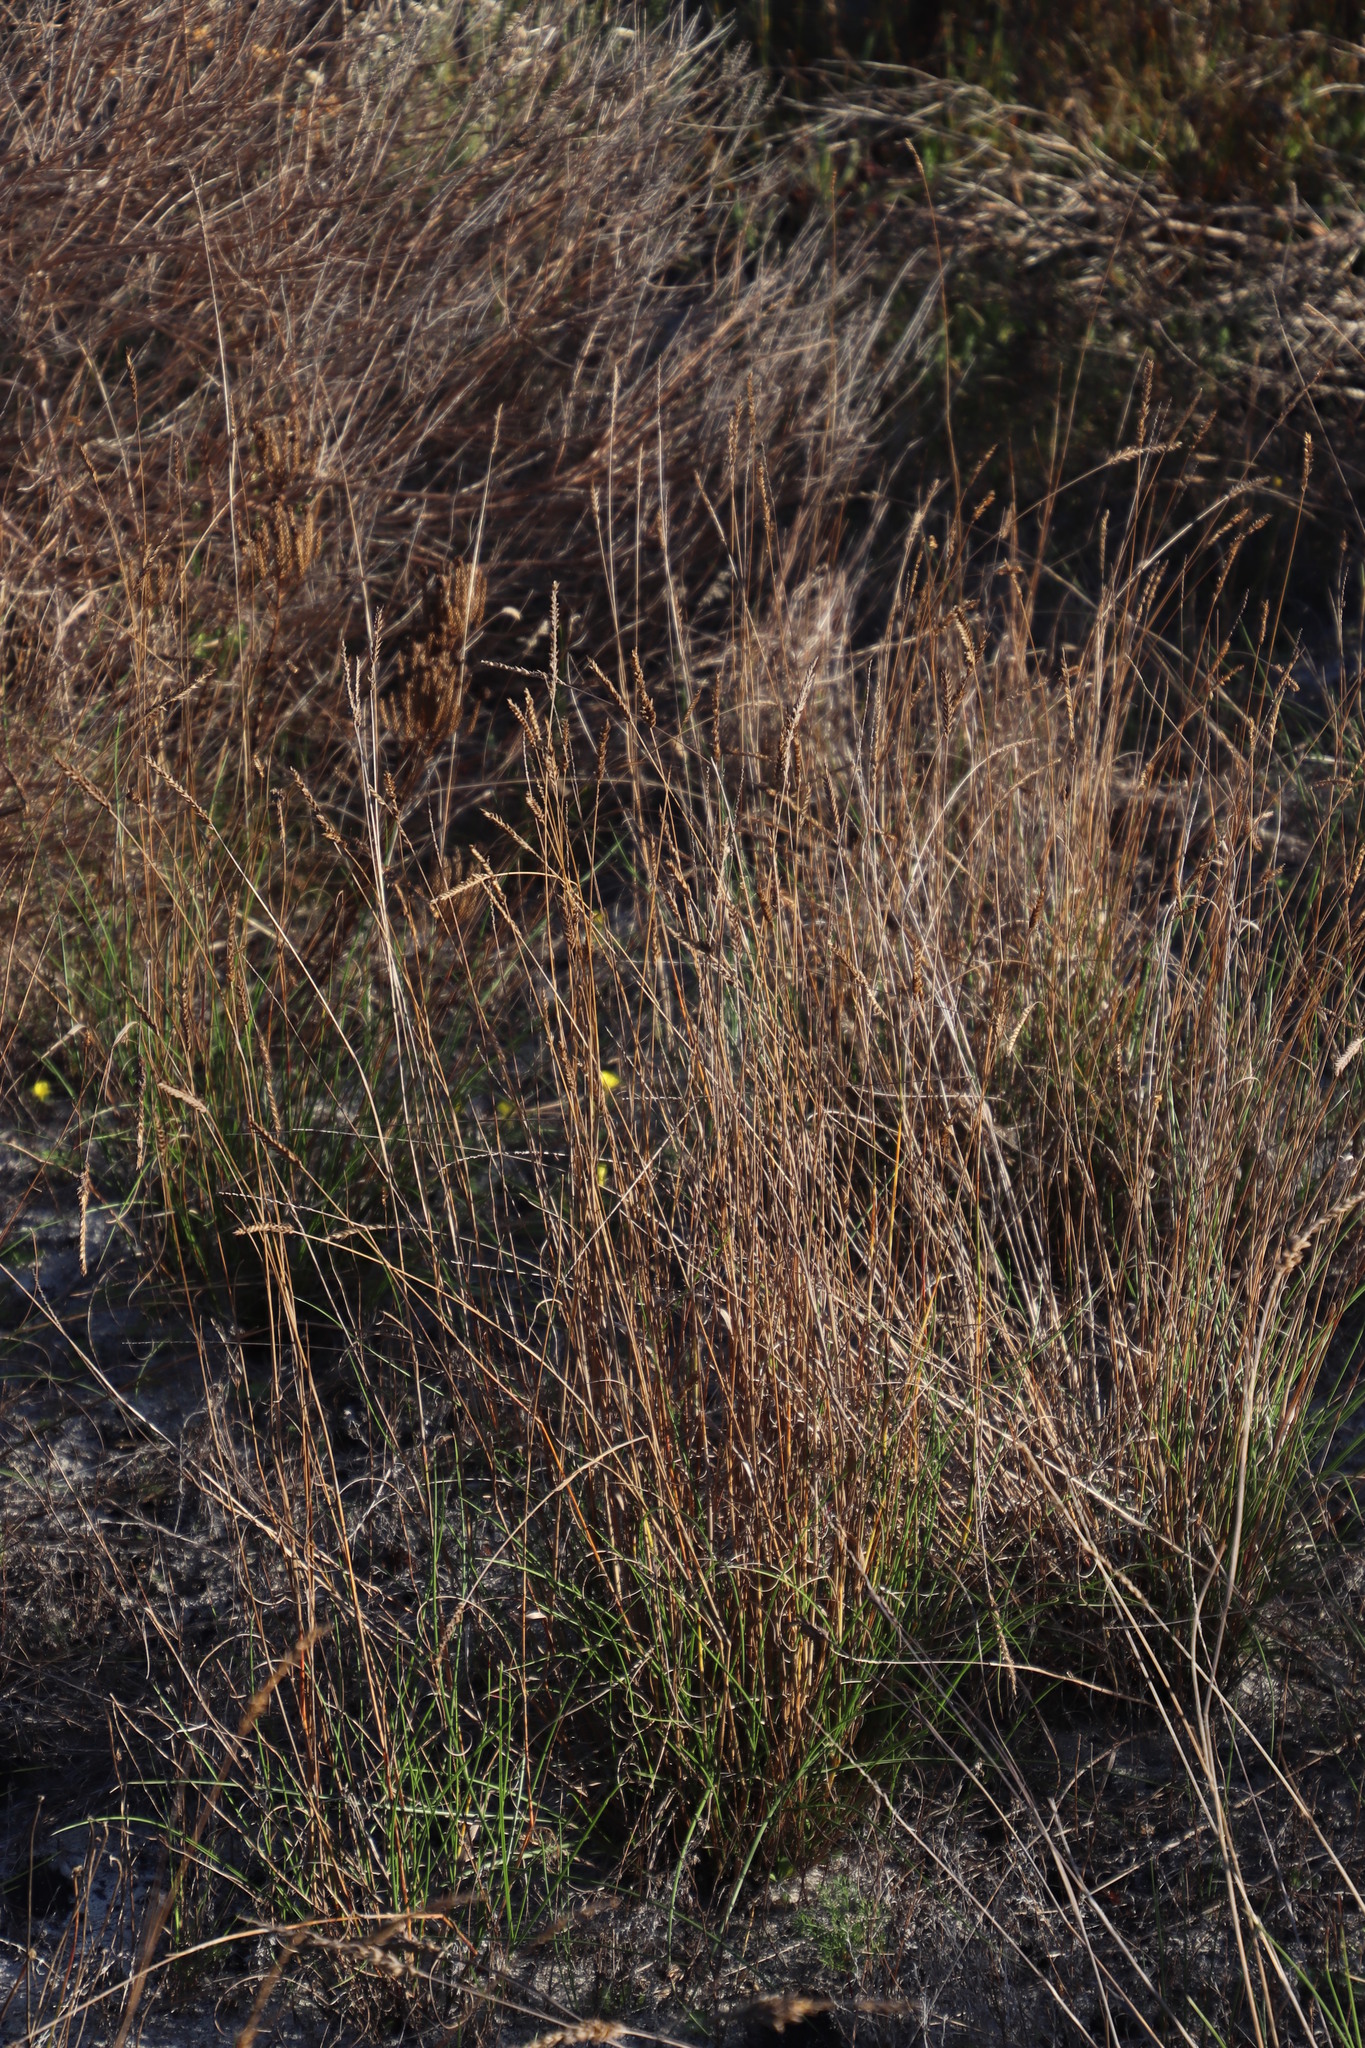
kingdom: Plantae
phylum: Tracheophyta
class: Liliopsida
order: Poales
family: Poaceae
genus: Tribolium
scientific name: Tribolium uniolae
